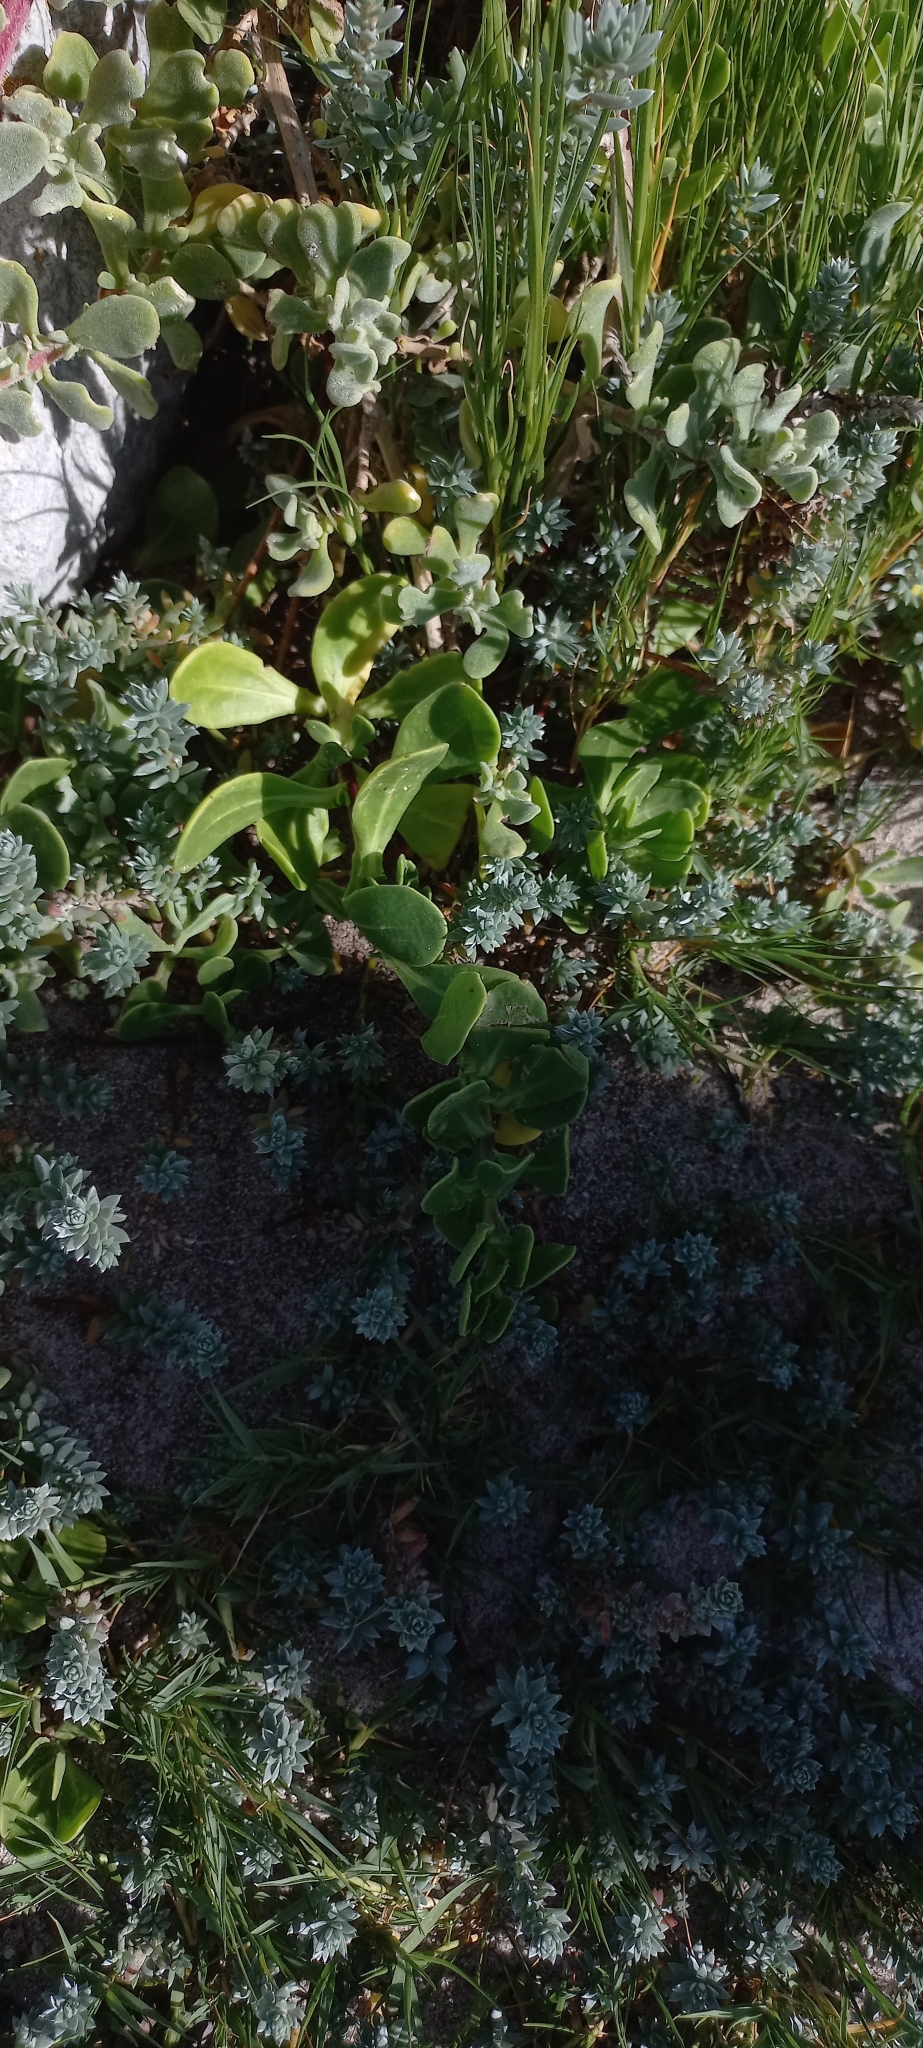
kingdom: Plantae
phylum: Tracheophyta
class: Magnoliopsida
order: Asterales
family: Asteraceae
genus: Dimorphotheca
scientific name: Dimorphotheca fruticosa
